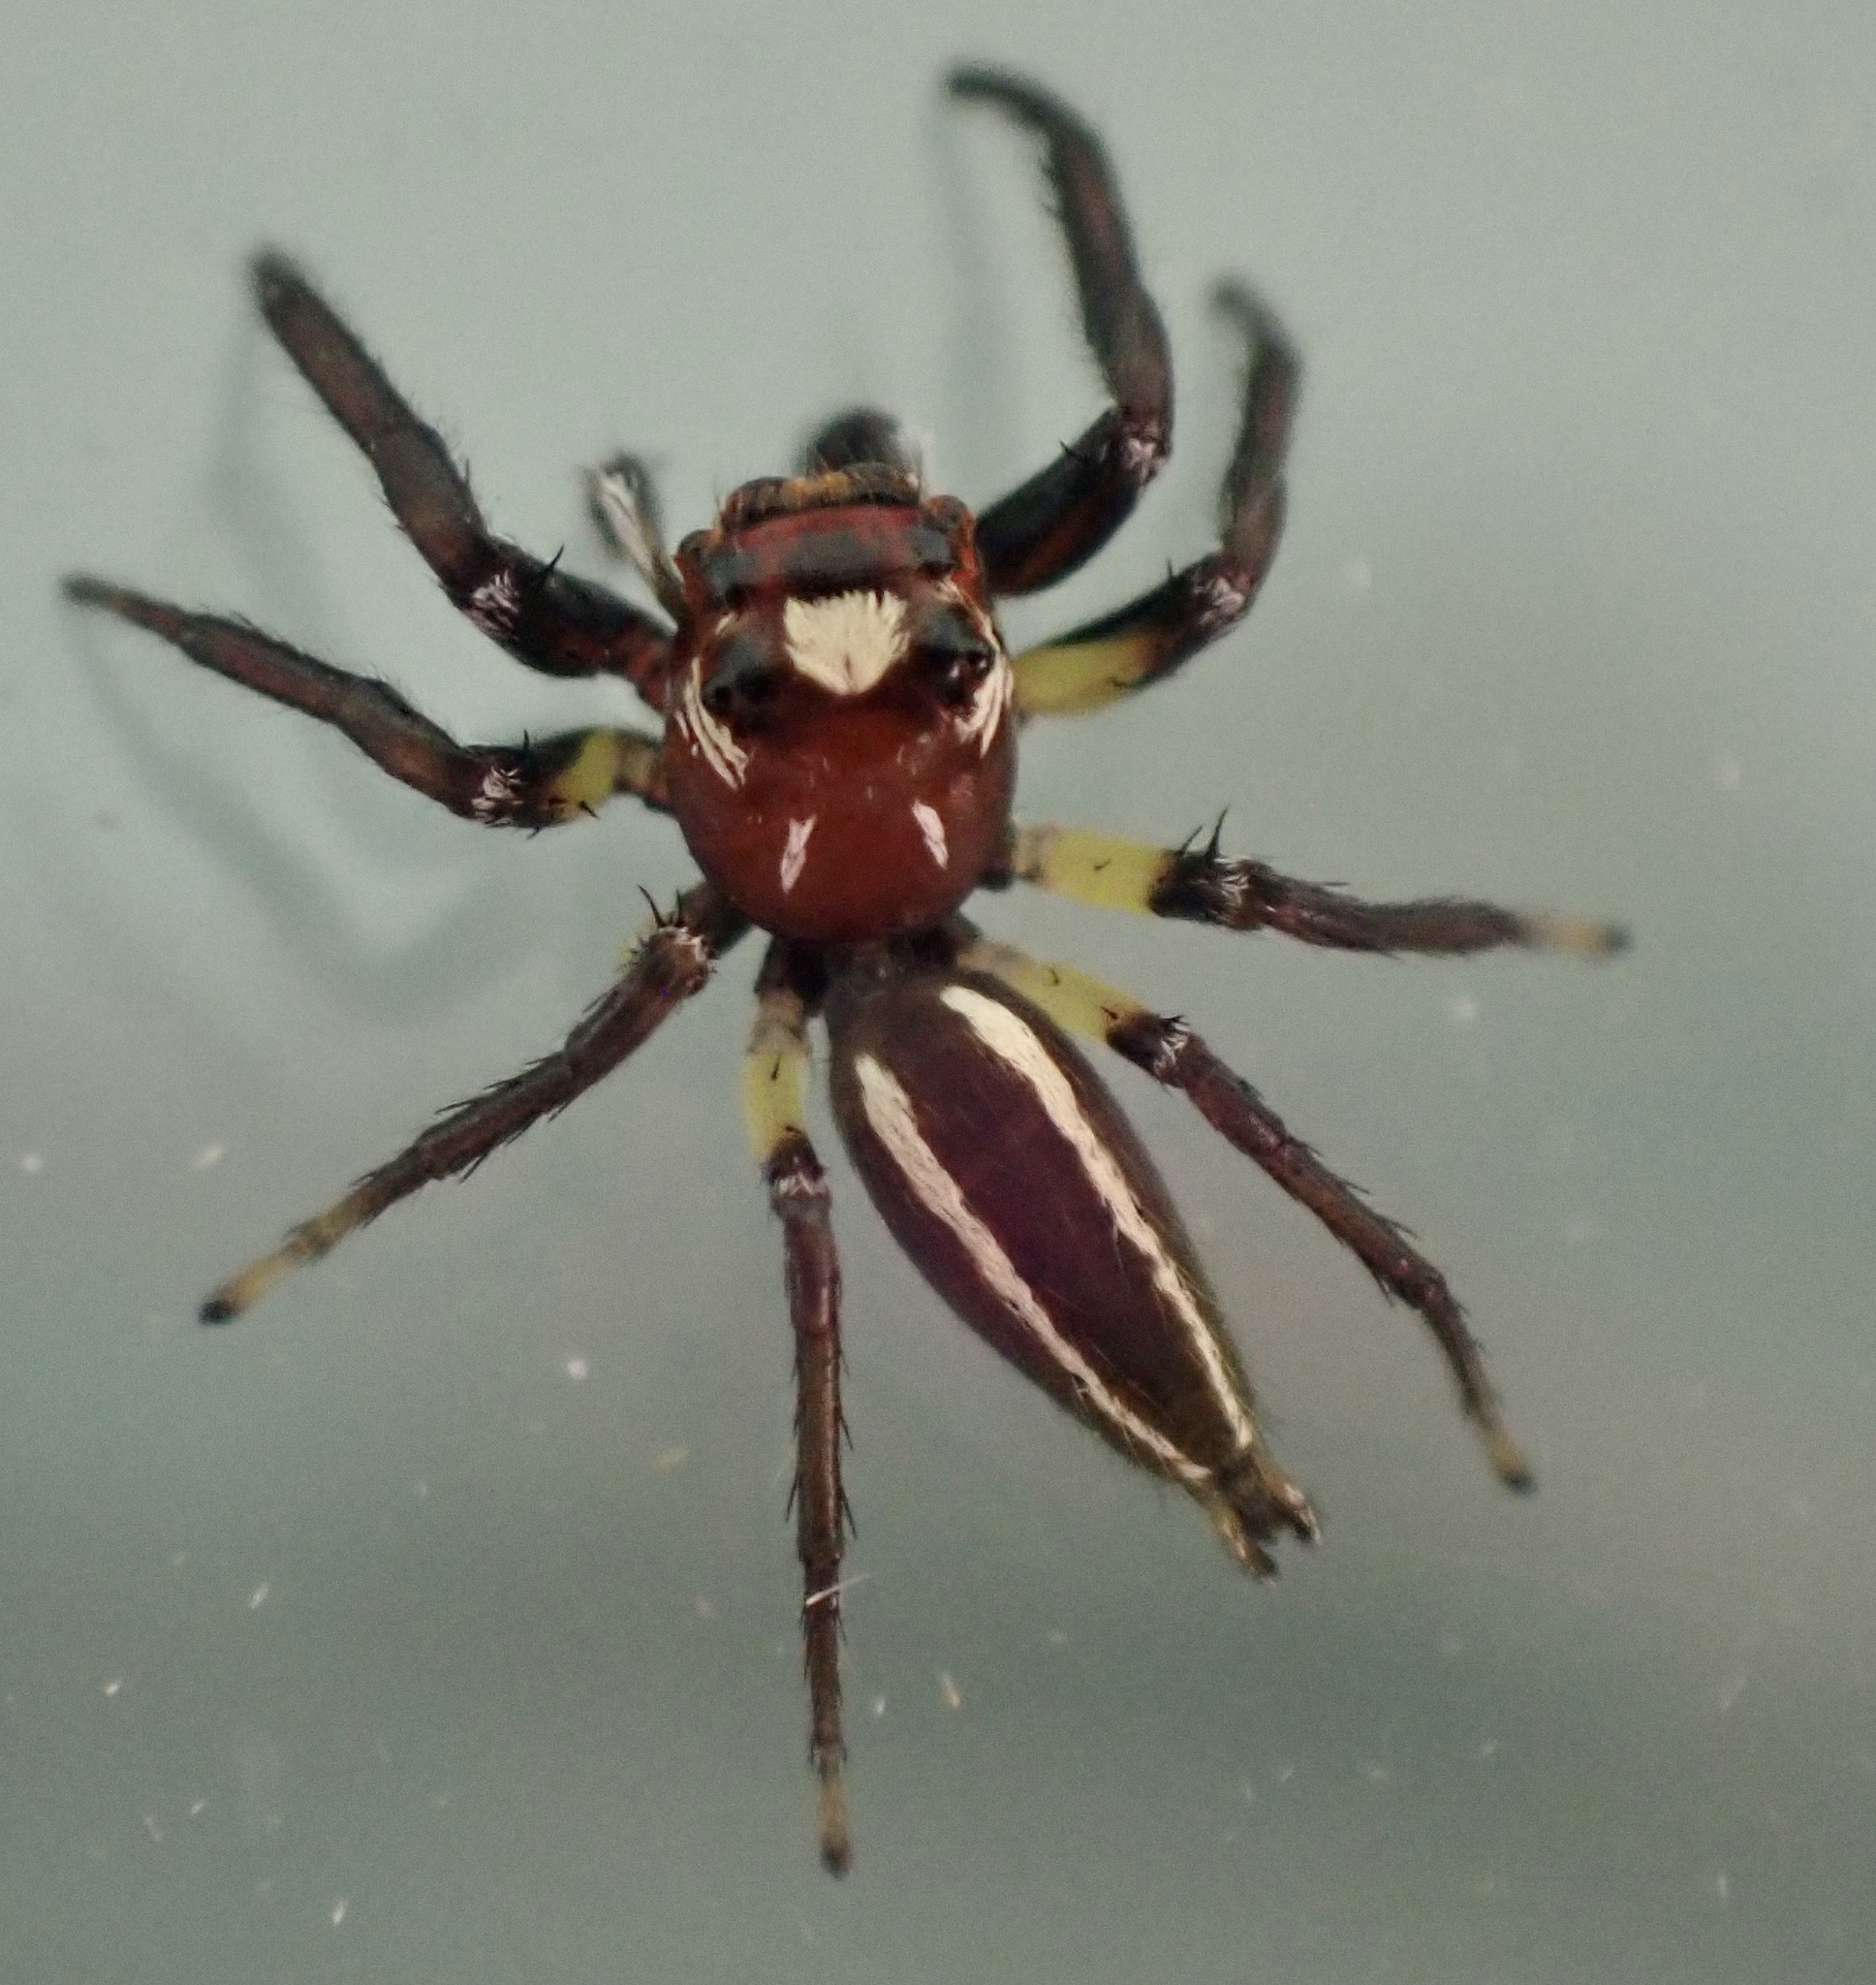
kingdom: Animalia
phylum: Arthropoda
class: Arachnida
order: Araneae
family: Salticidae
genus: Colonus
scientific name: Colonus sylvanus
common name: Jumping spiders
